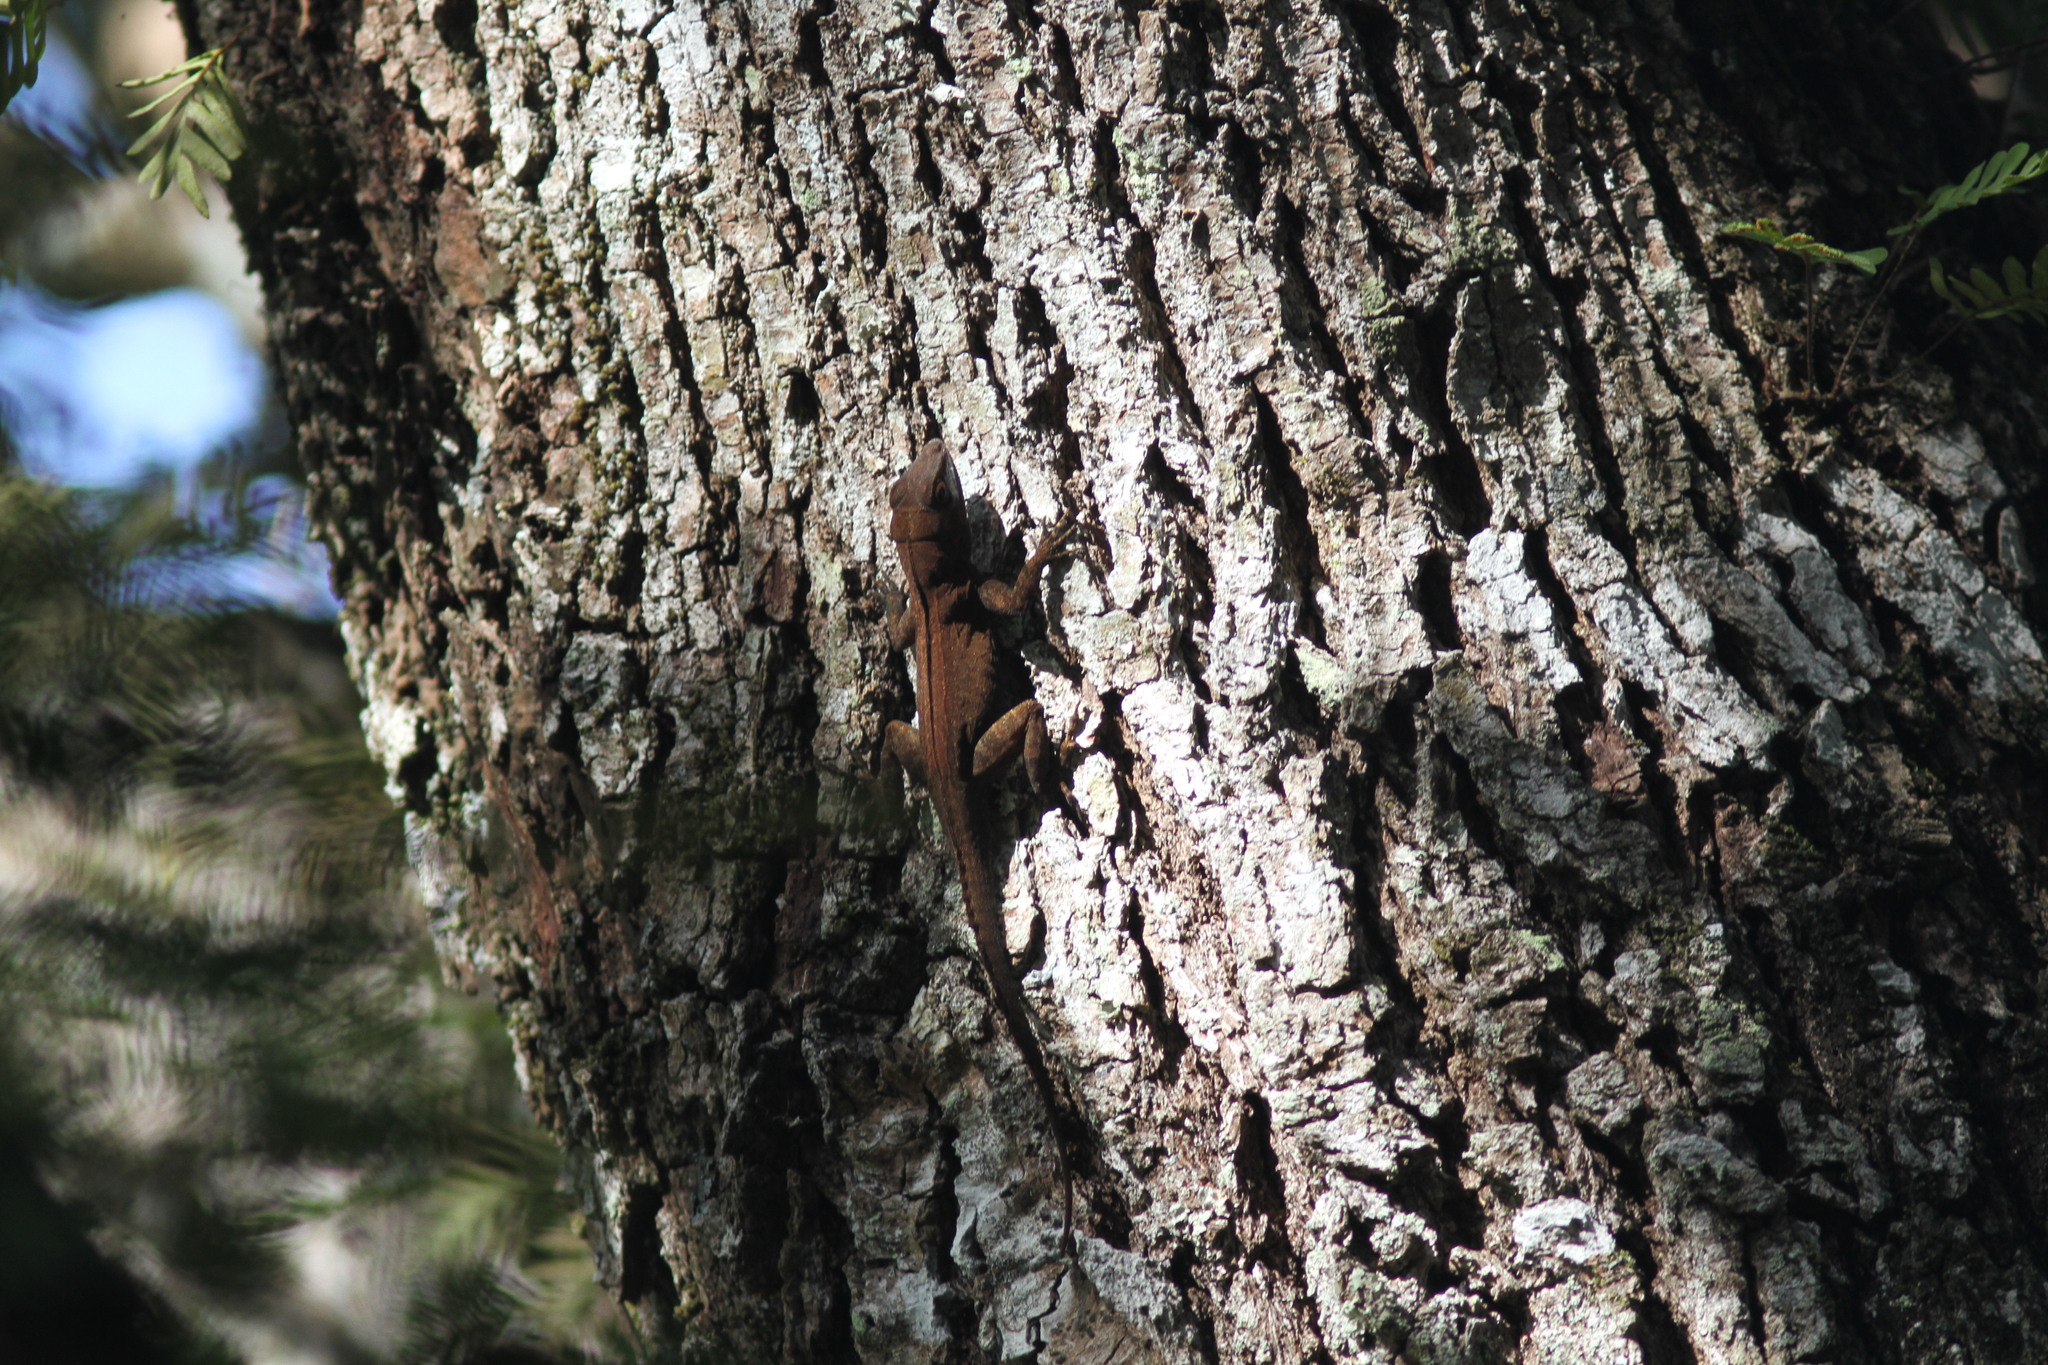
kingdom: Animalia
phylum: Chordata
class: Squamata
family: Dactyloidae
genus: Anolis
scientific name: Anolis cristatellus
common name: Crested anole
